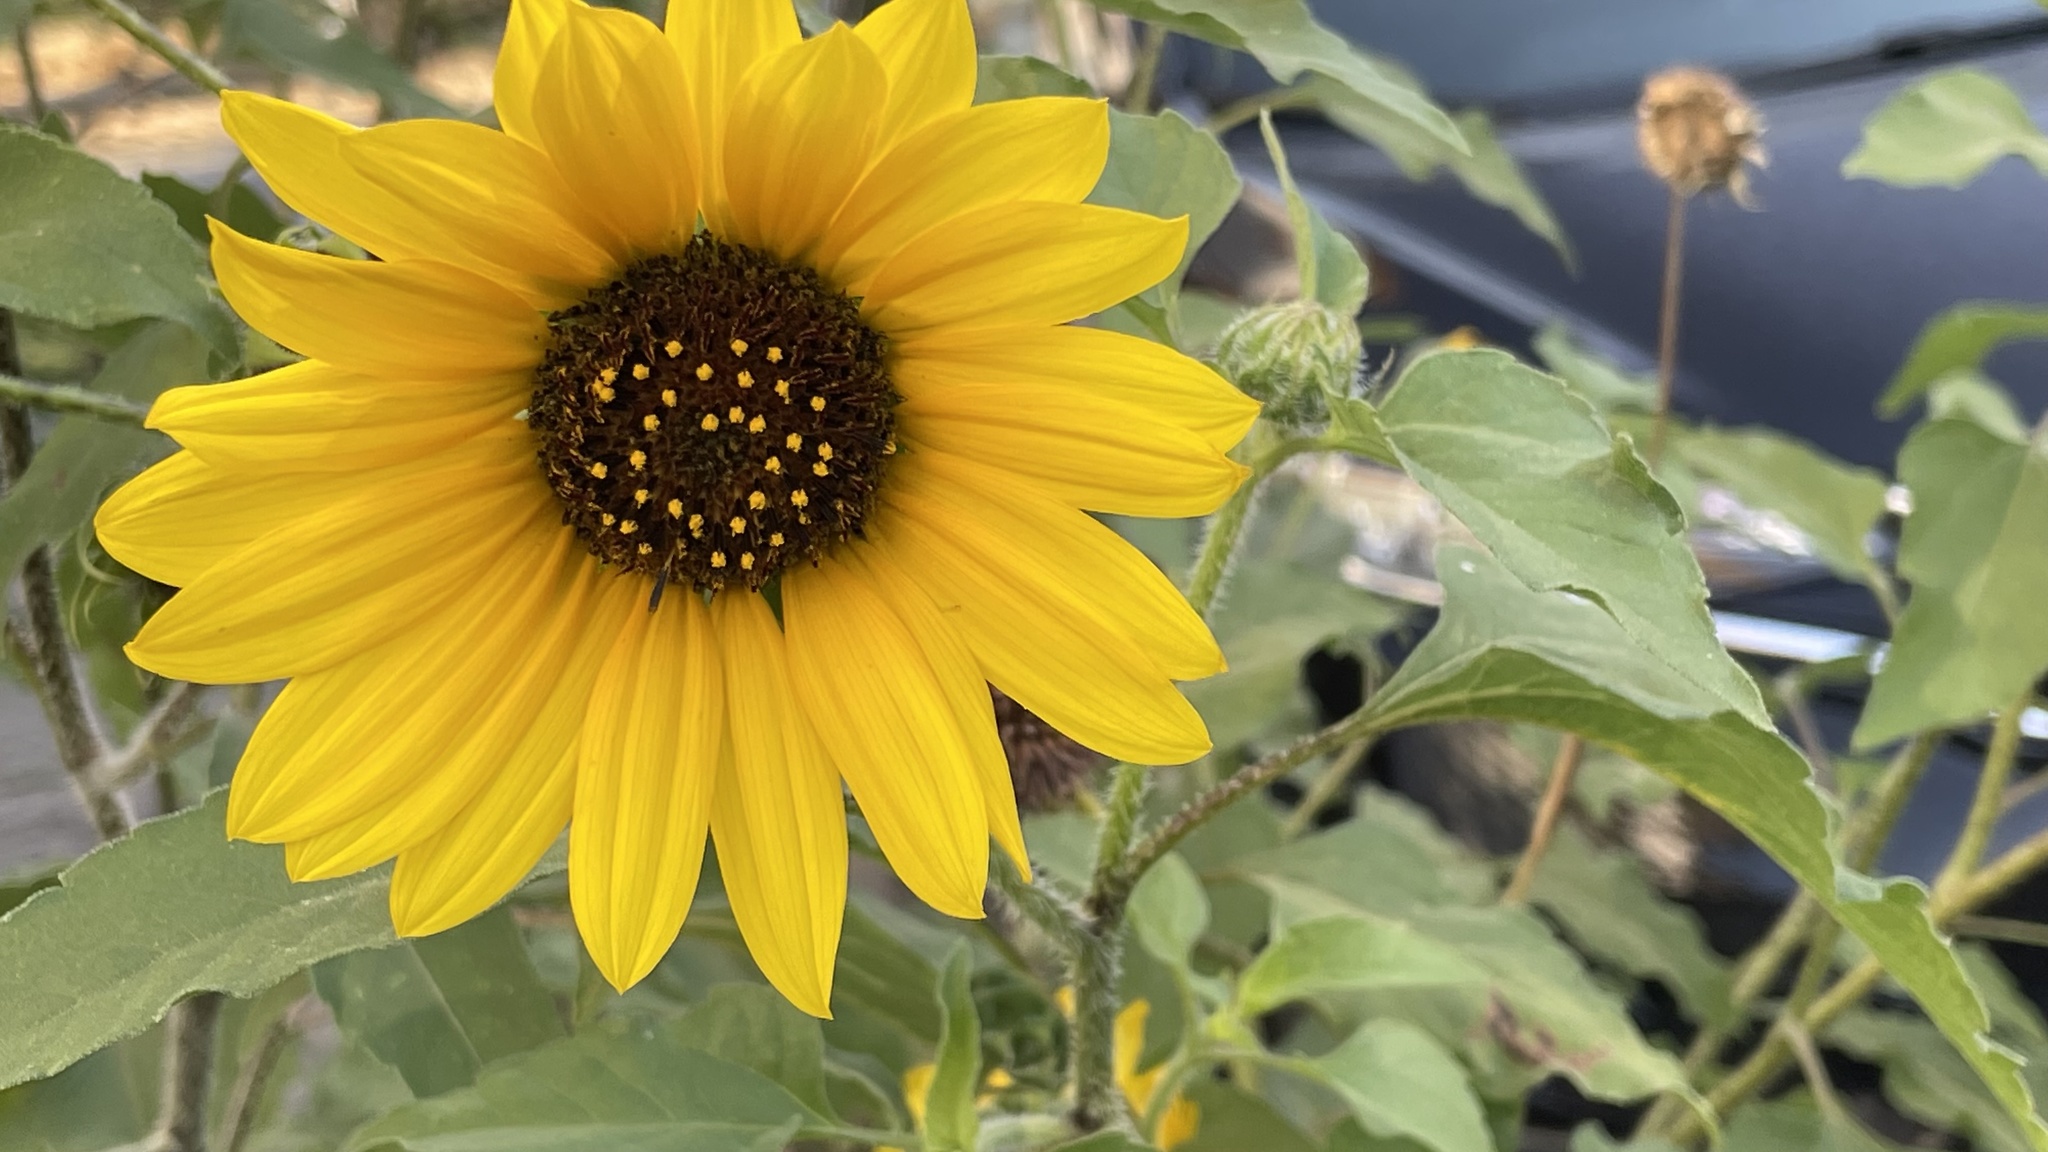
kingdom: Plantae
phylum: Tracheophyta
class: Magnoliopsida
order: Asterales
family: Asteraceae
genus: Helianthus
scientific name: Helianthus annuus
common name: Sunflower
